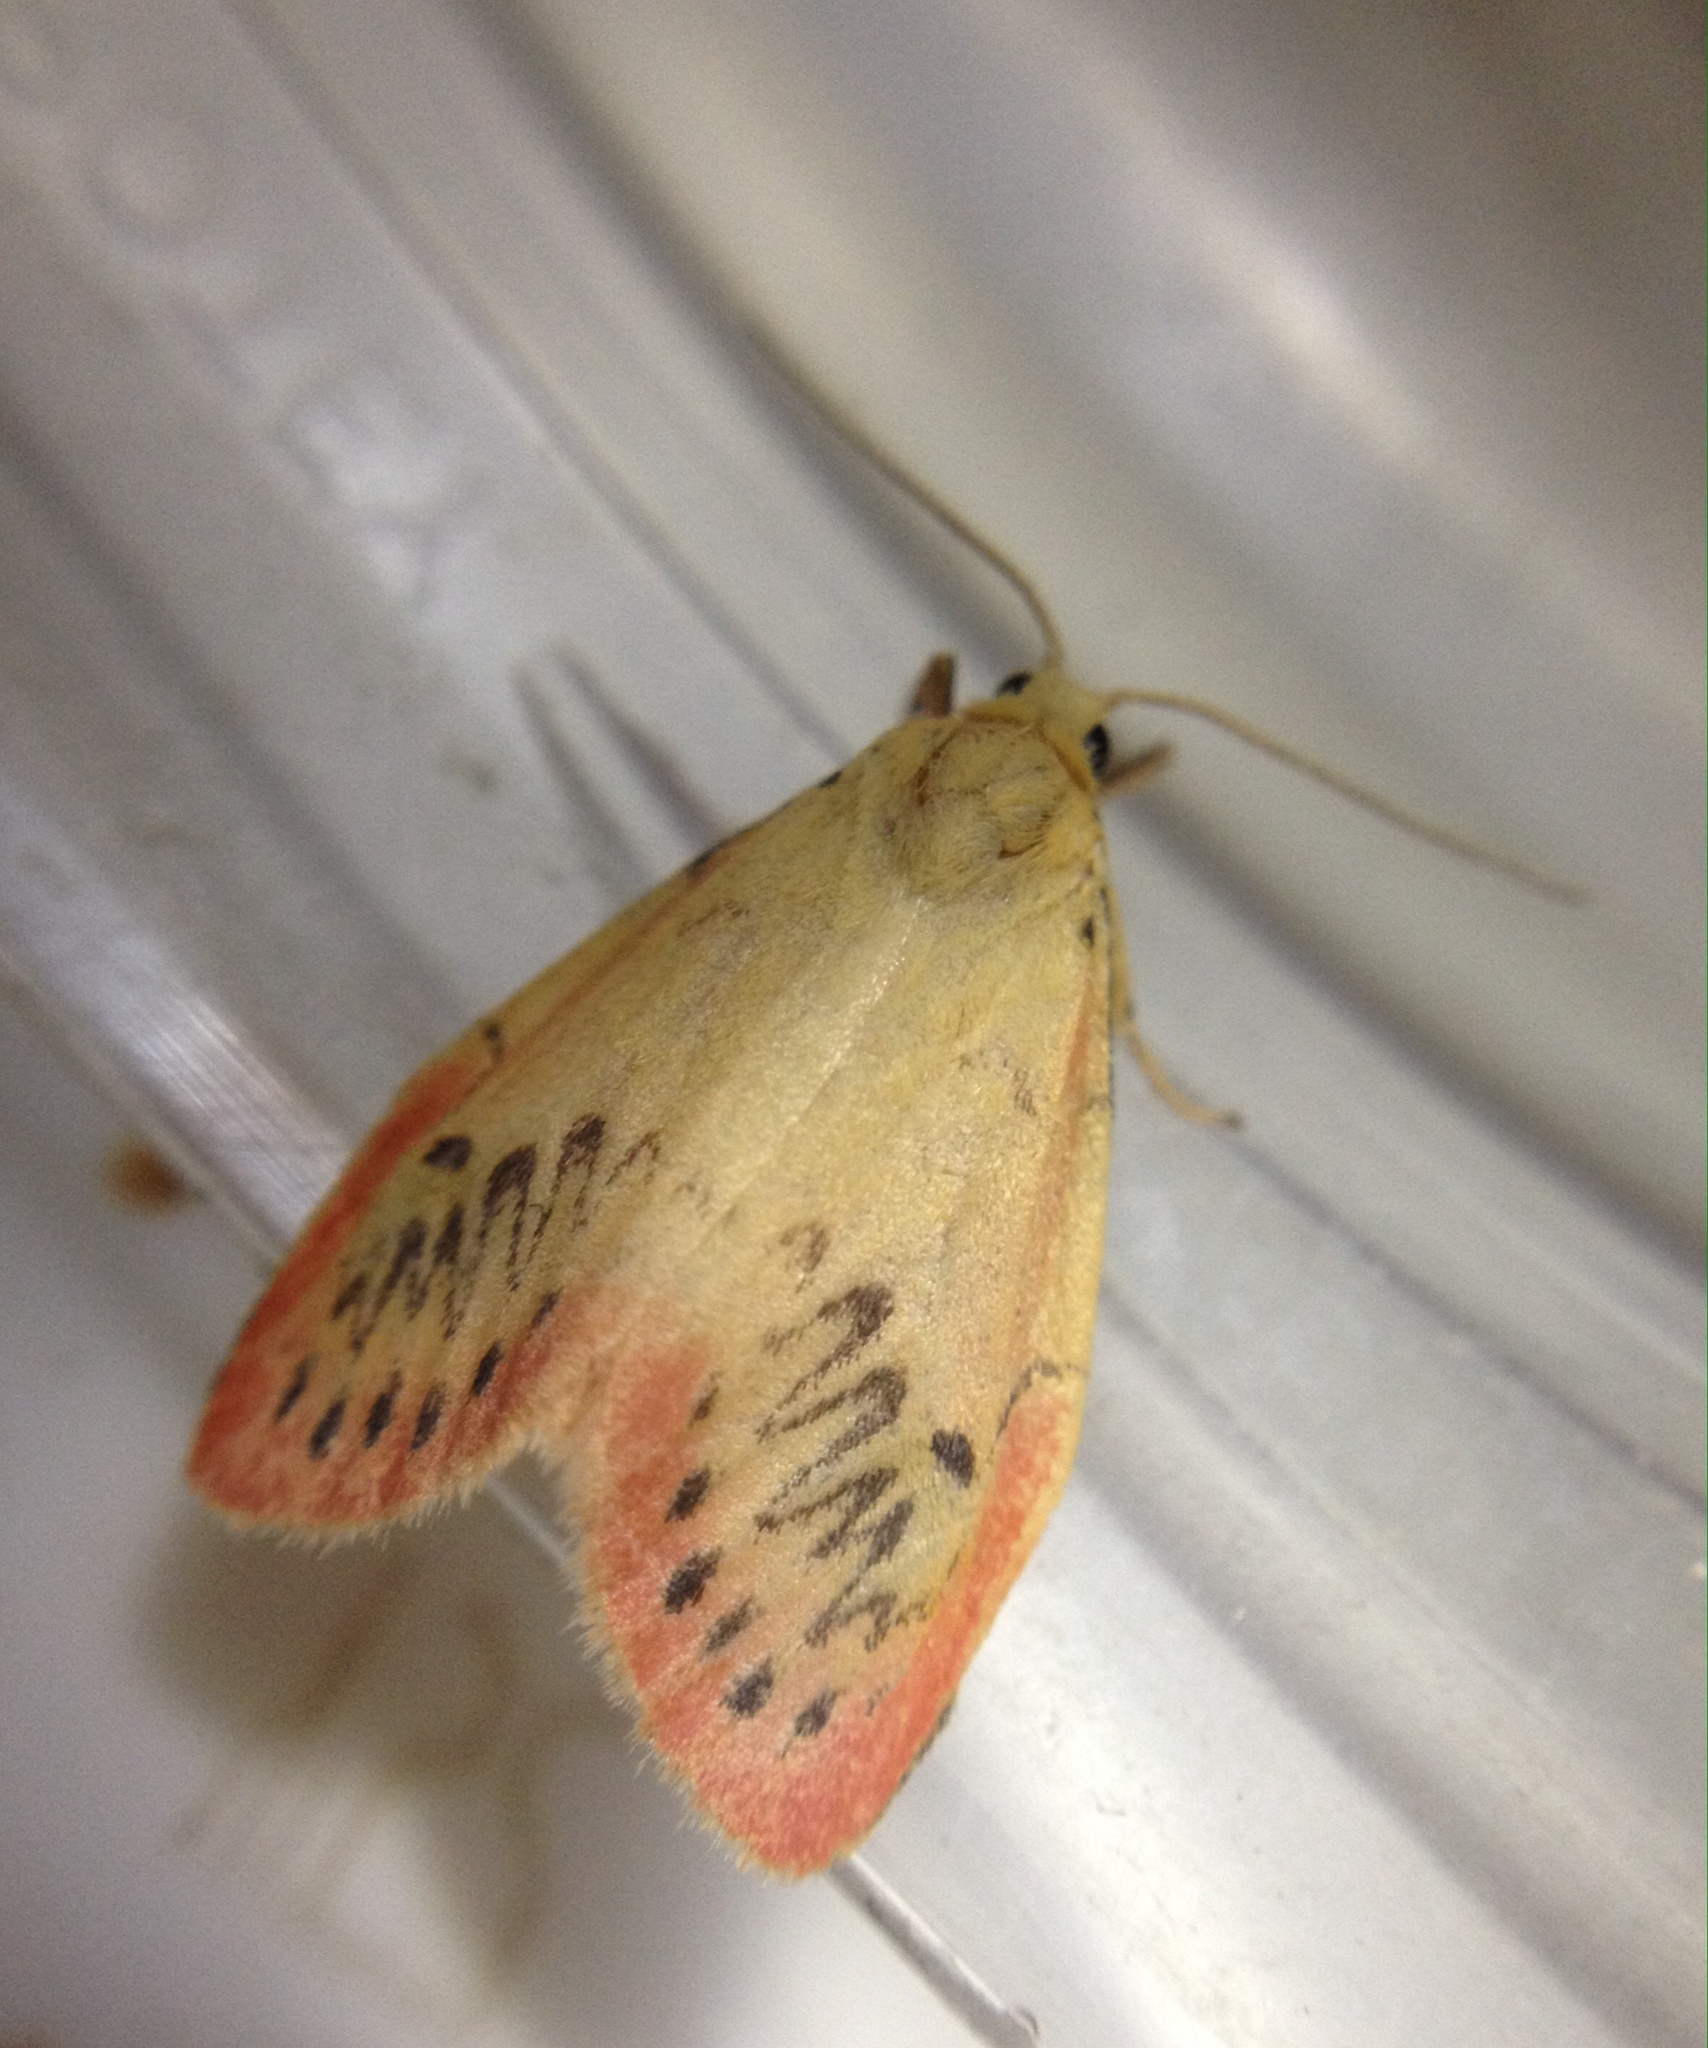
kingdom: Animalia
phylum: Arthropoda
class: Insecta
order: Lepidoptera
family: Erebidae
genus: Miltochrista
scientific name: Miltochrista miniata
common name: Rosy footman
